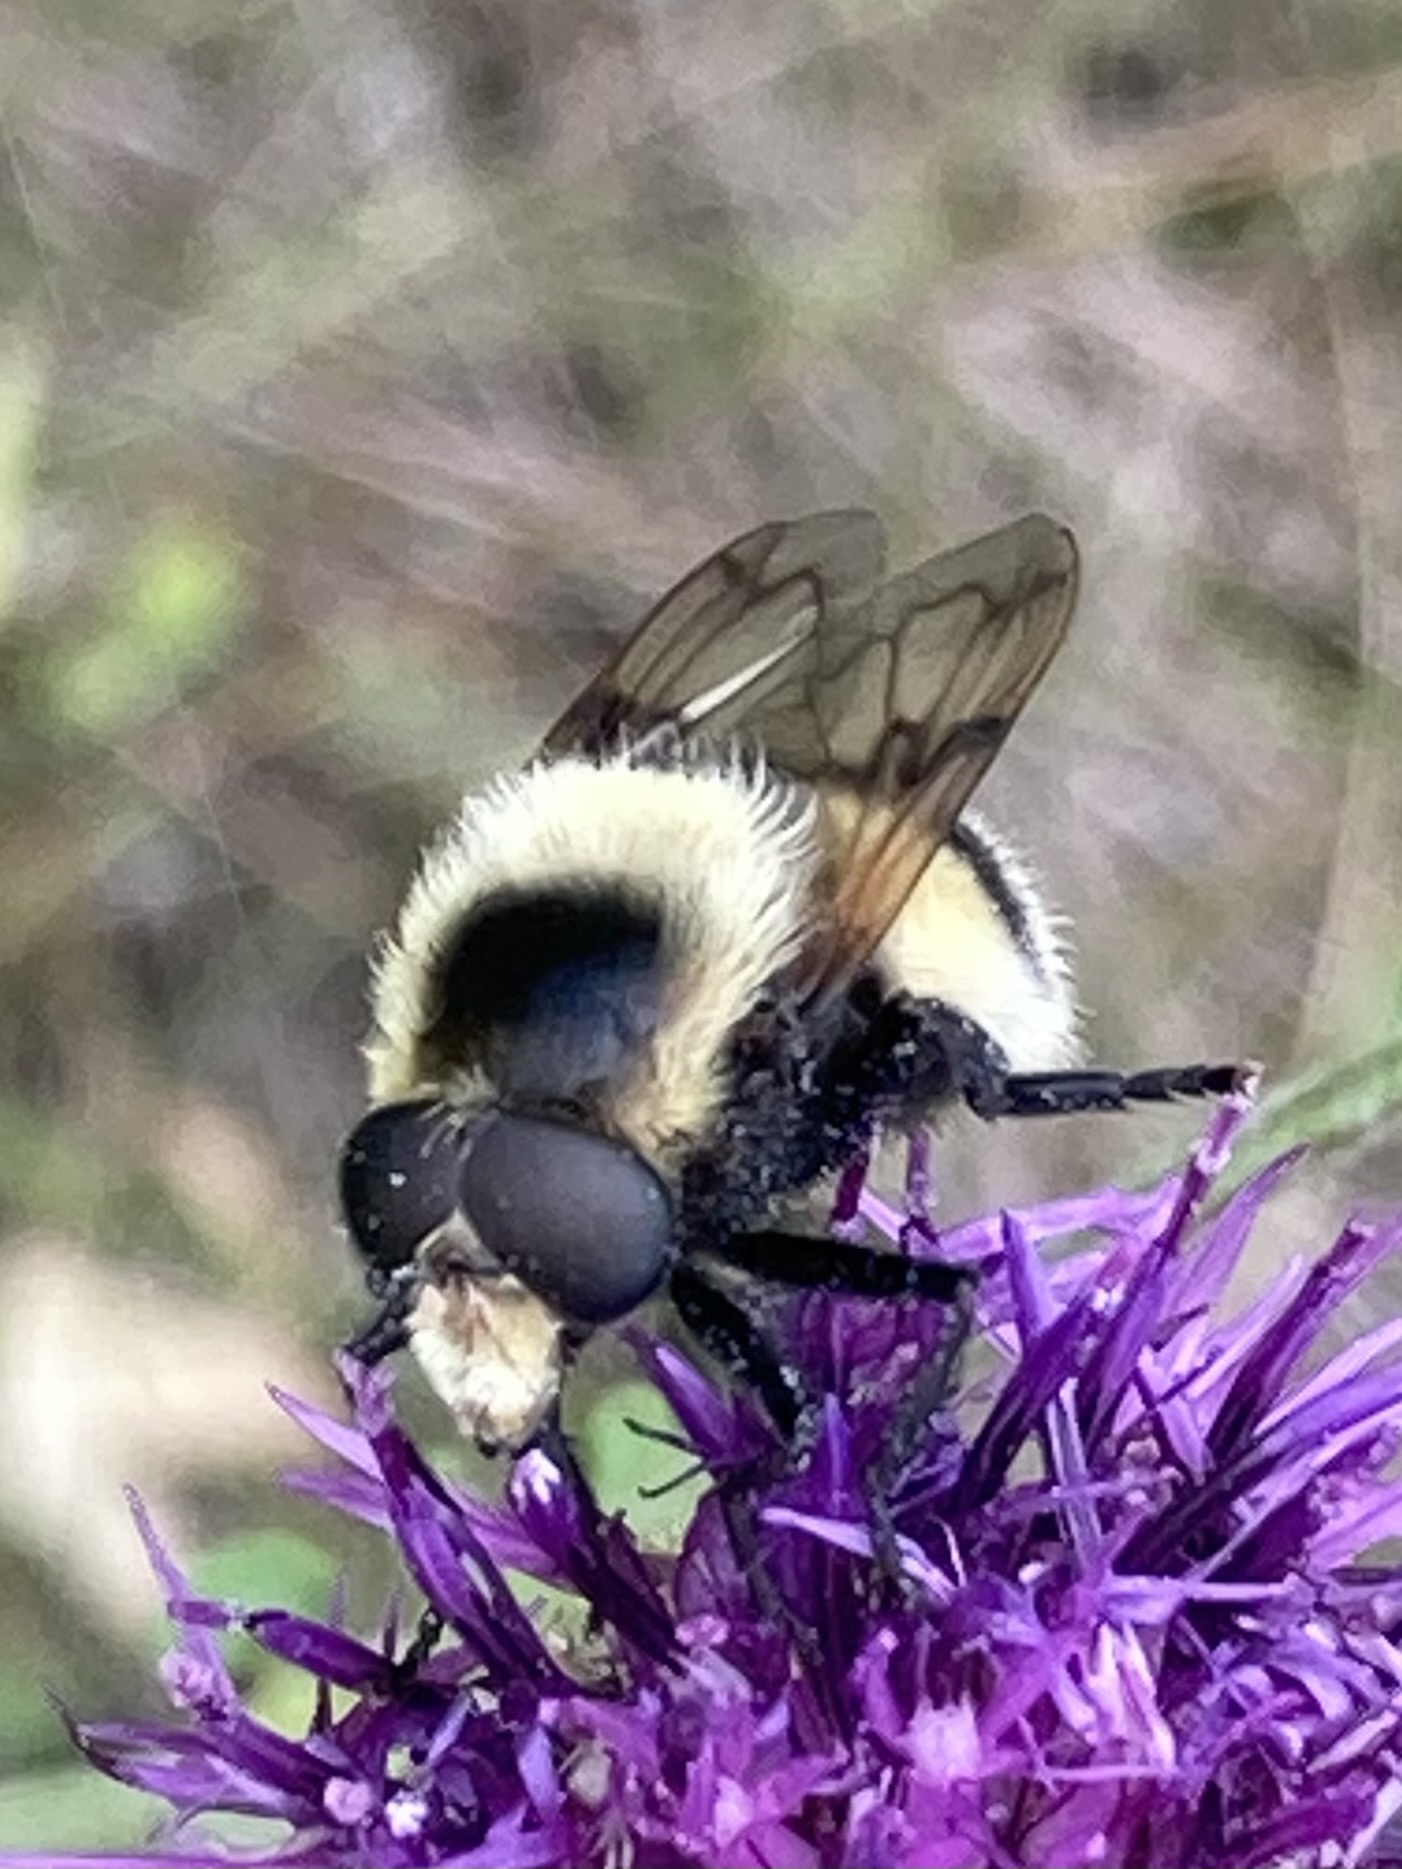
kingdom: Animalia
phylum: Arthropoda
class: Insecta
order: Diptera
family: Syrphidae
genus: Volucella
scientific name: Volucella bombylans
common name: Bumble bee hover fly
